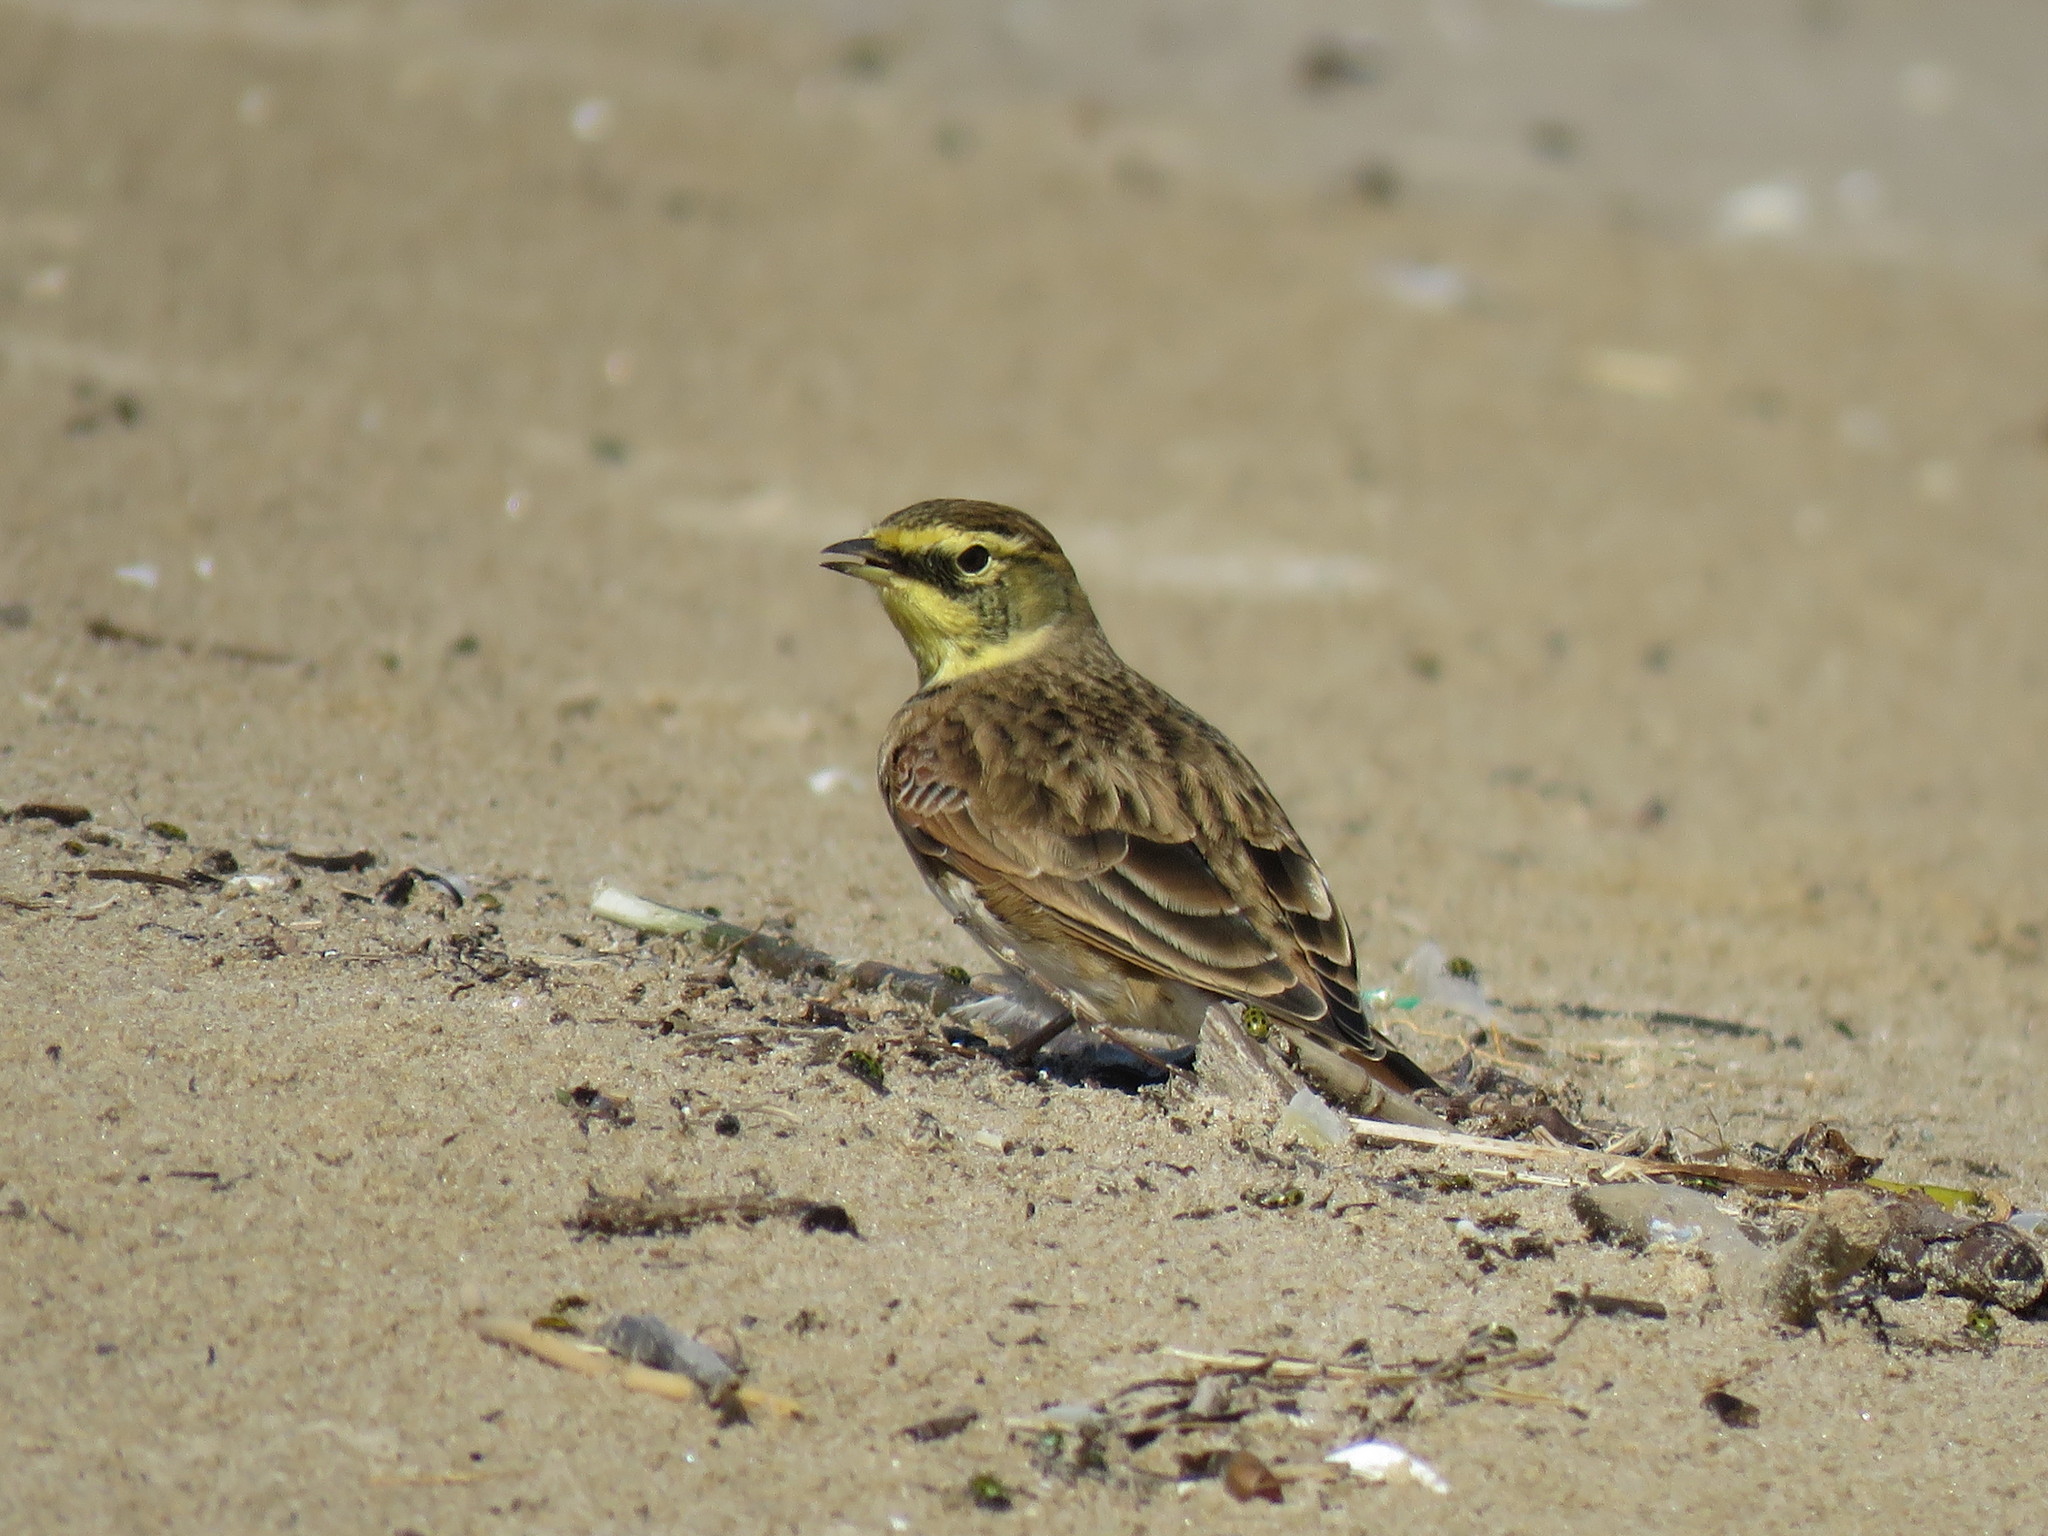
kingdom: Animalia
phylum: Chordata
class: Aves
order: Passeriformes
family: Alaudidae
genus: Eremophila
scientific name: Eremophila alpestris
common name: Horned lark
